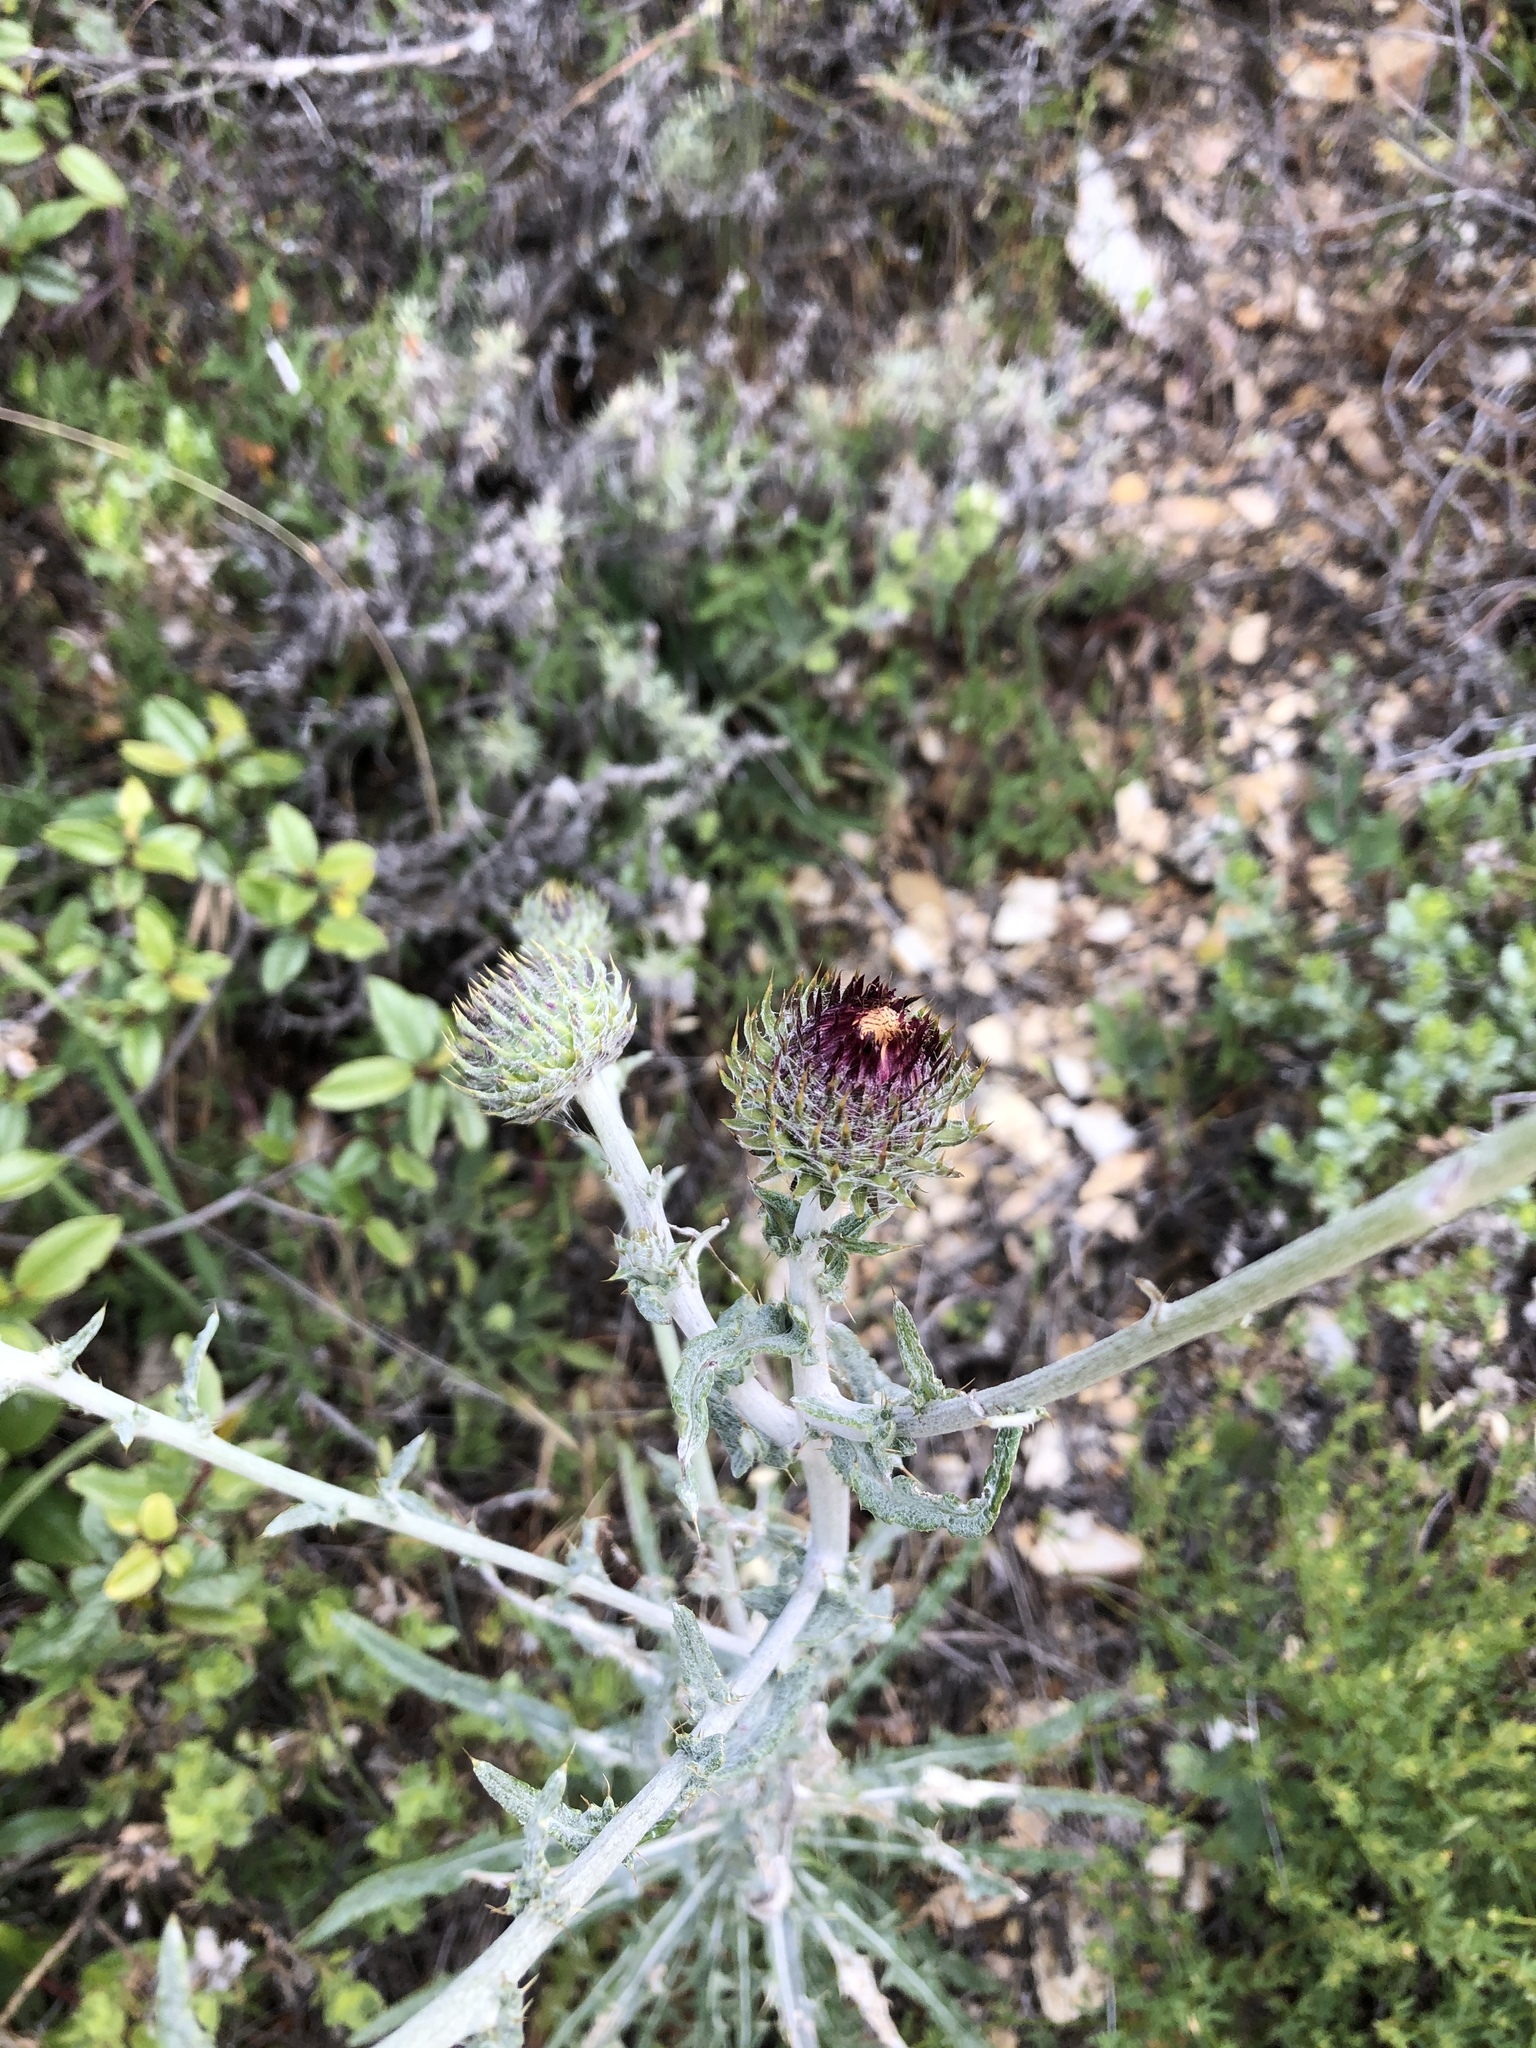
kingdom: Plantae
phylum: Tracheophyta
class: Magnoliopsida
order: Asterales
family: Asteraceae
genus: Cirsium
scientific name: Cirsium occidentale
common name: Western thistle
